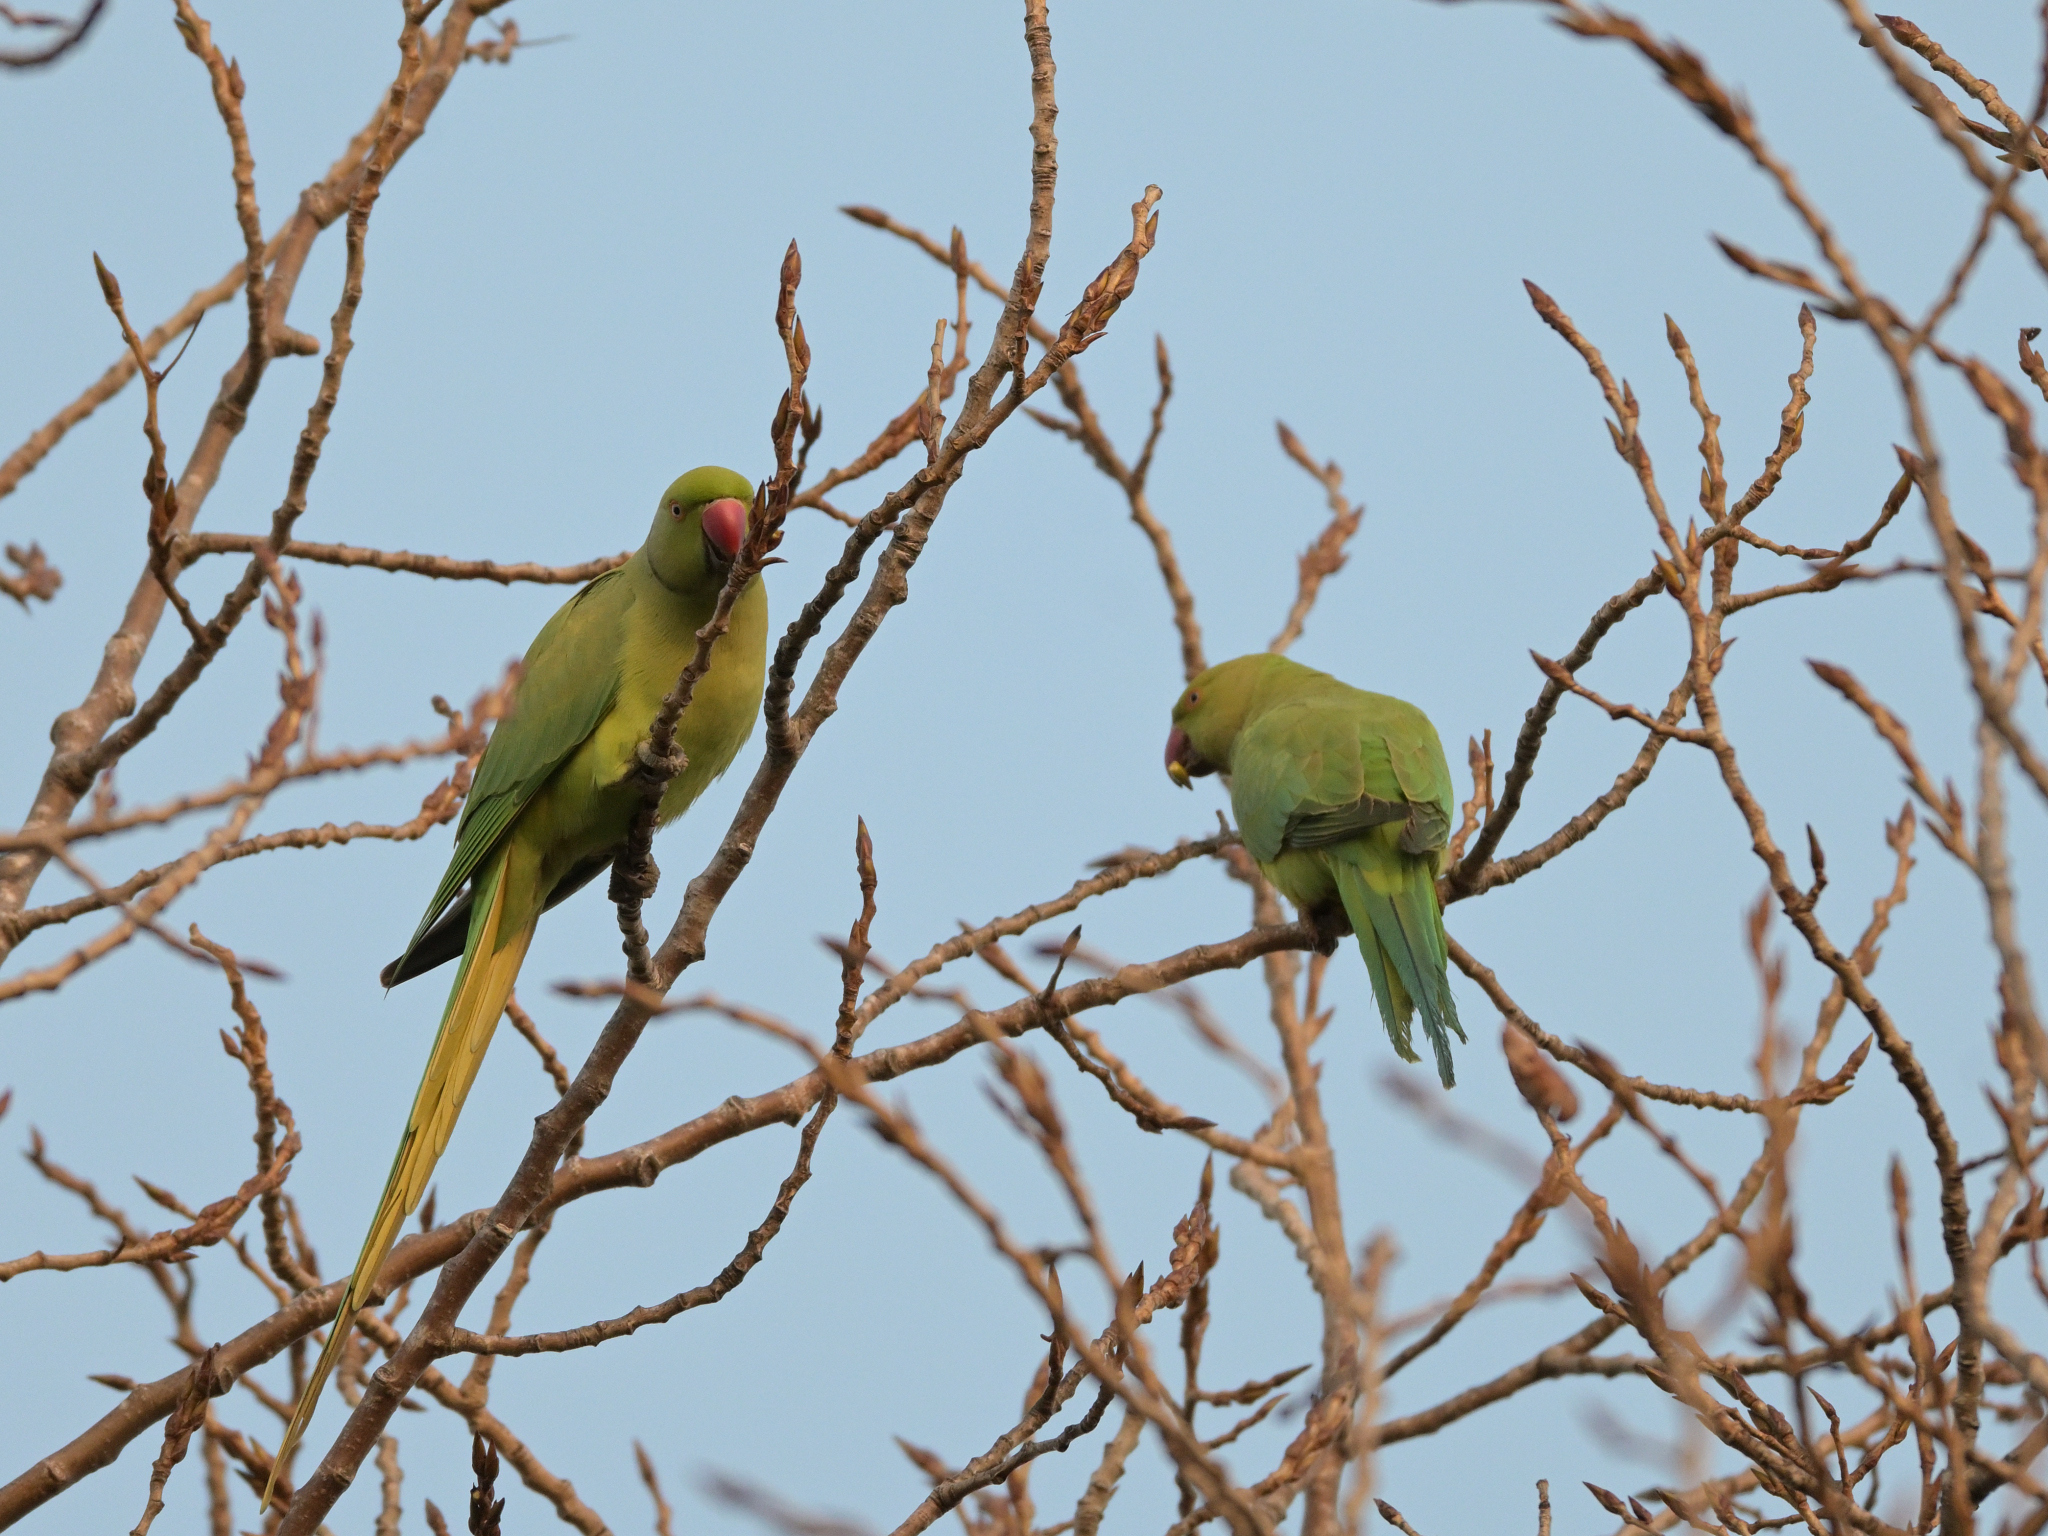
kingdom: Animalia
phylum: Chordata
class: Aves
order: Psittaciformes
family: Psittacidae
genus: Psittacula
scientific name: Psittacula krameri
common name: Rose-ringed parakeet
